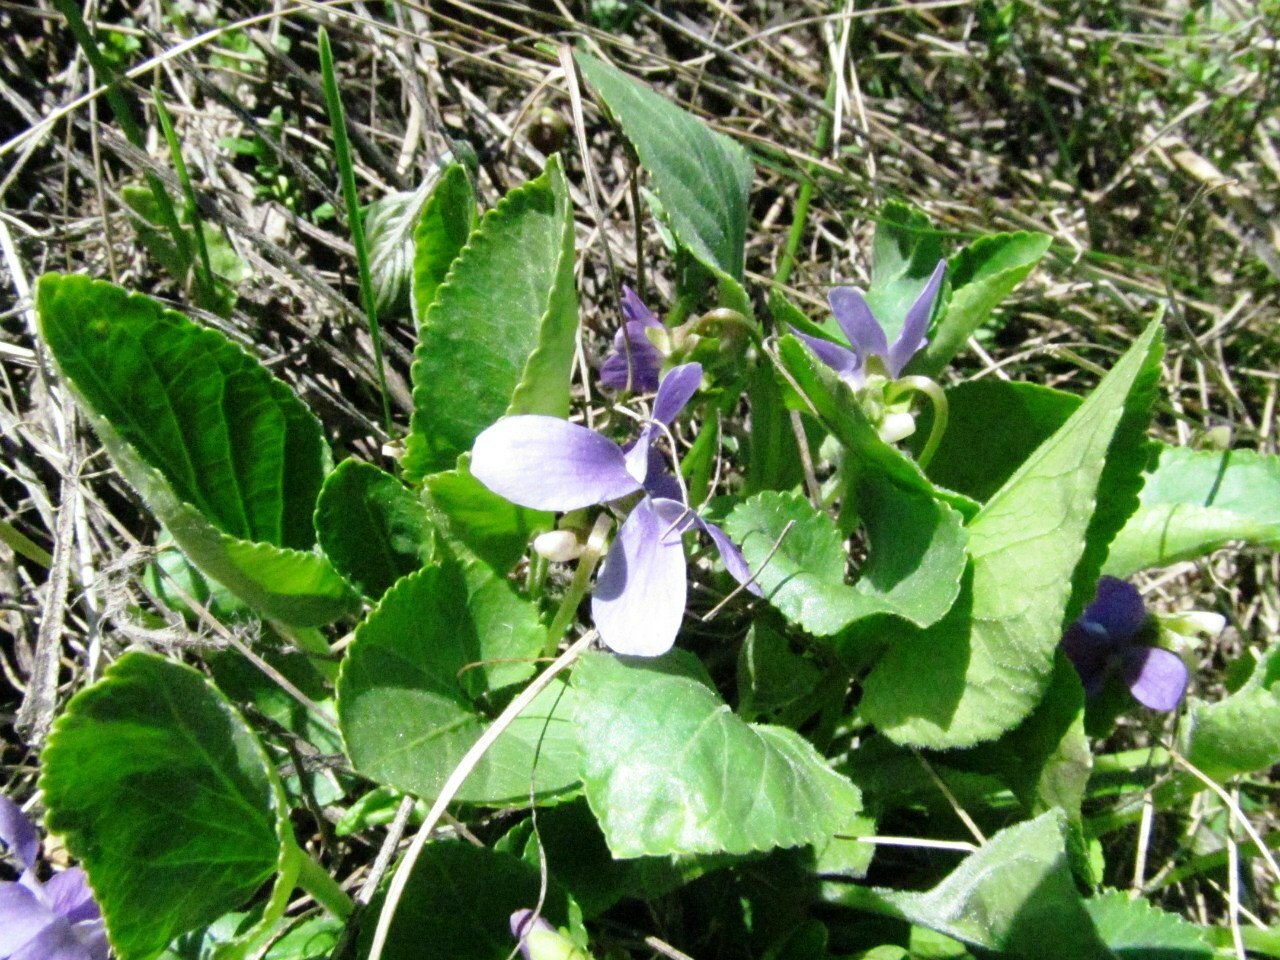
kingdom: Plantae
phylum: Tracheophyta
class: Magnoliopsida
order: Malpighiales
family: Violaceae
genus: Viola
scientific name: Viola ambigua
